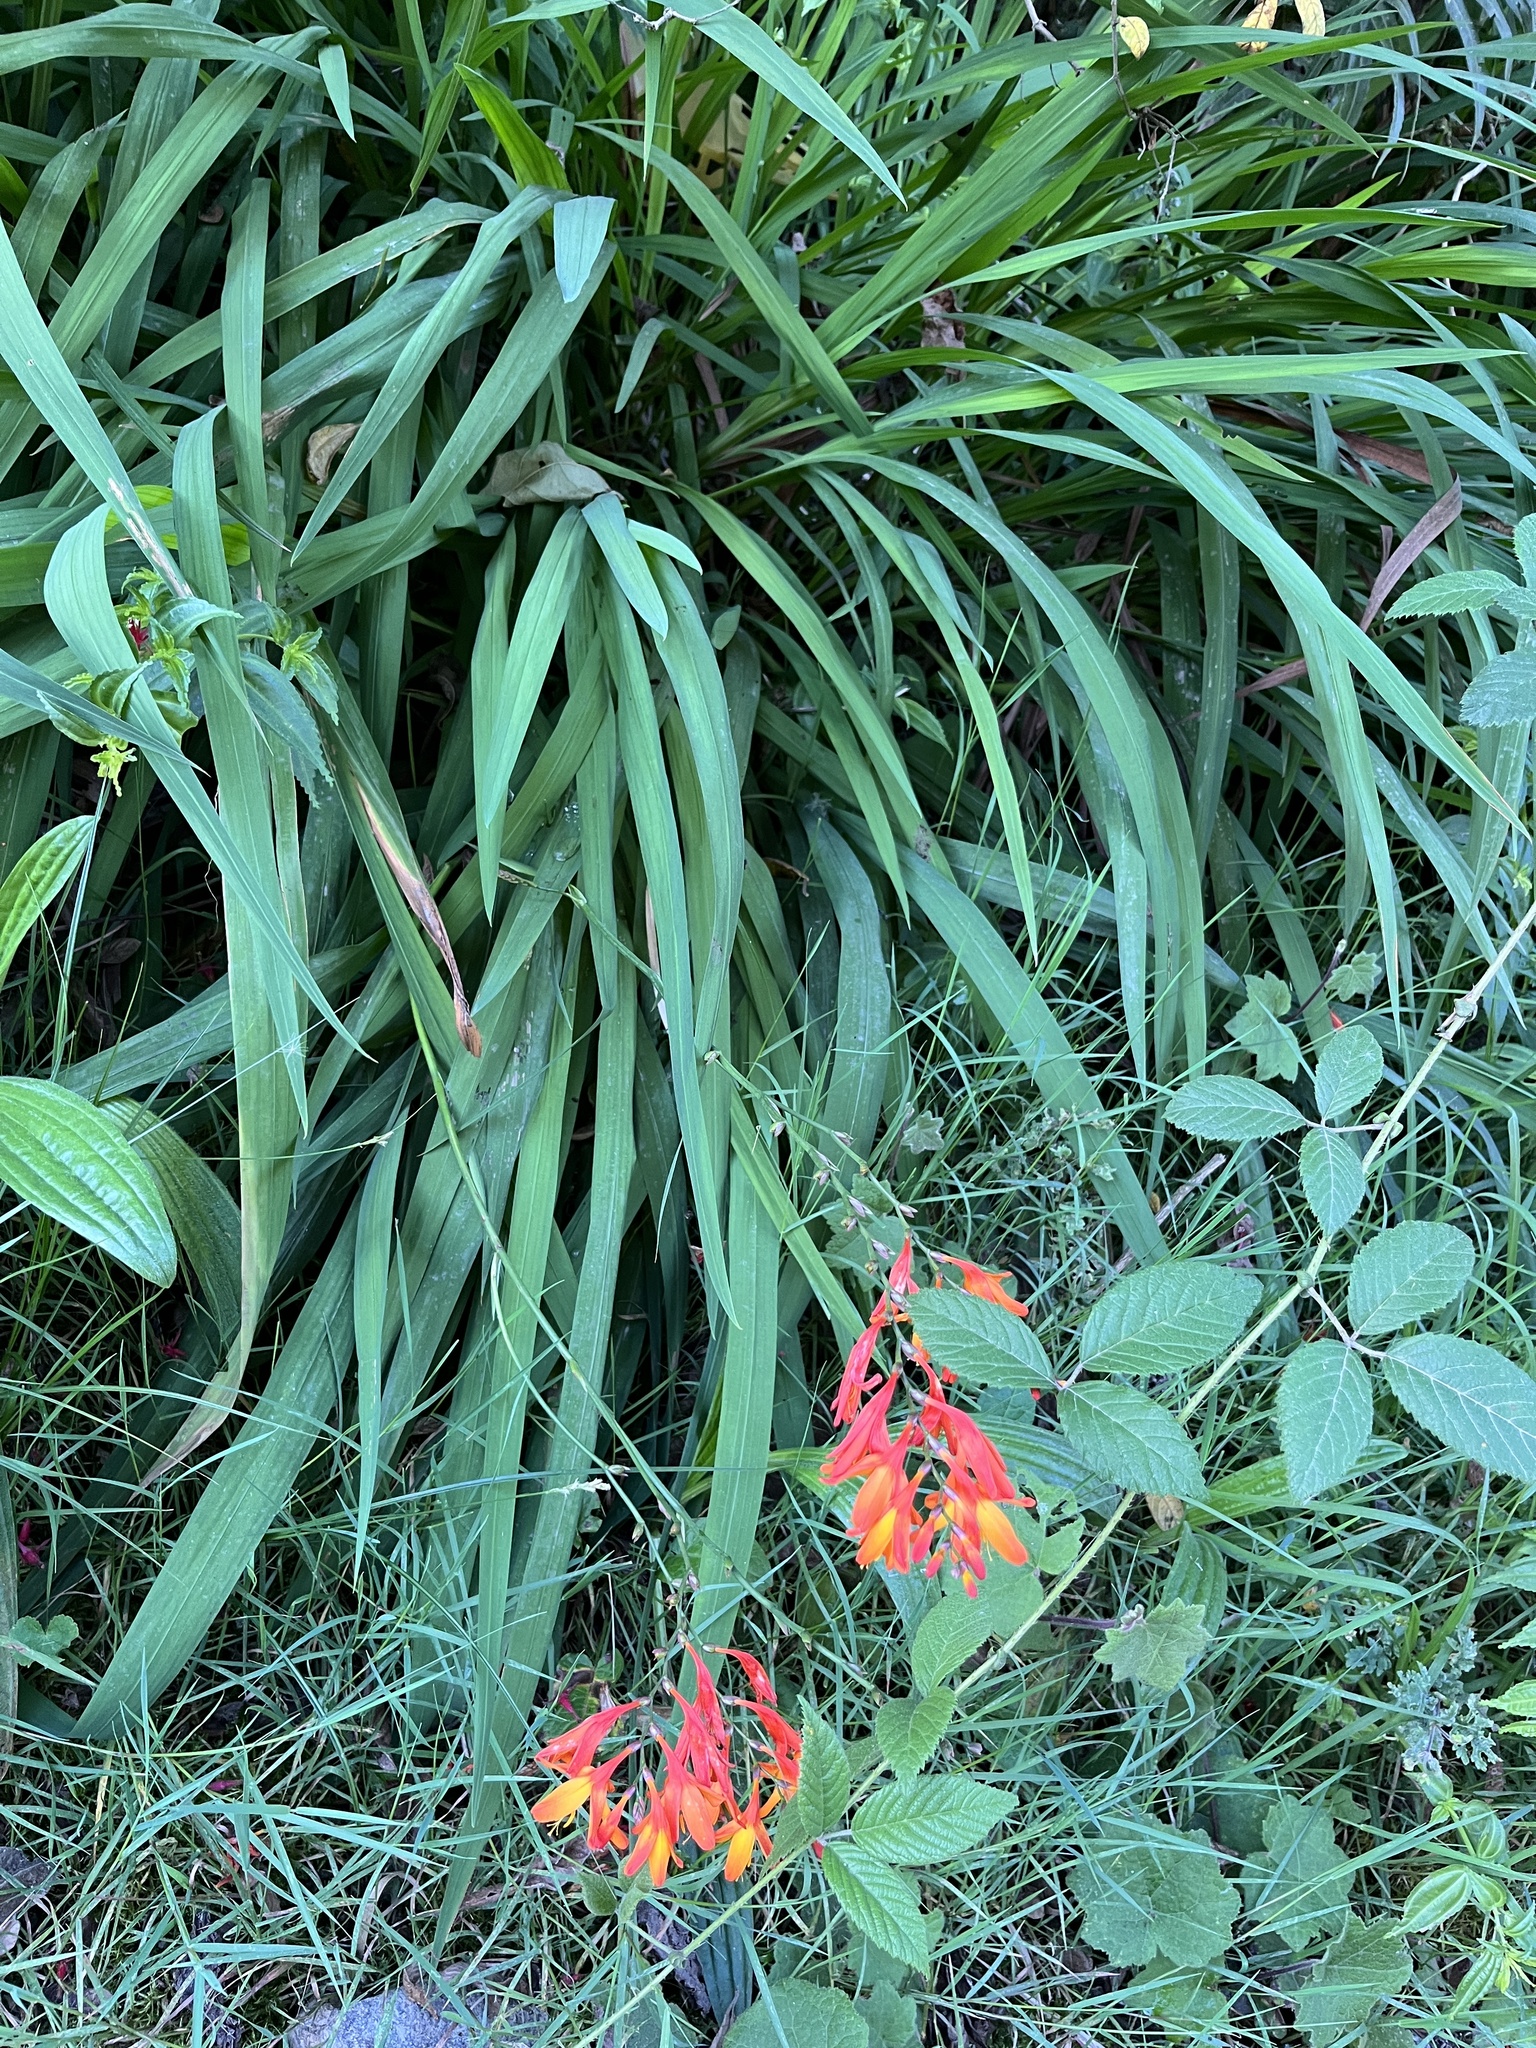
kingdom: Plantae
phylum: Tracheophyta
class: Liliopsida
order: Asparagales
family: Iridaceae
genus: Crocosmia
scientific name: Crocosmia crocosmiiflora
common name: Montbretia
